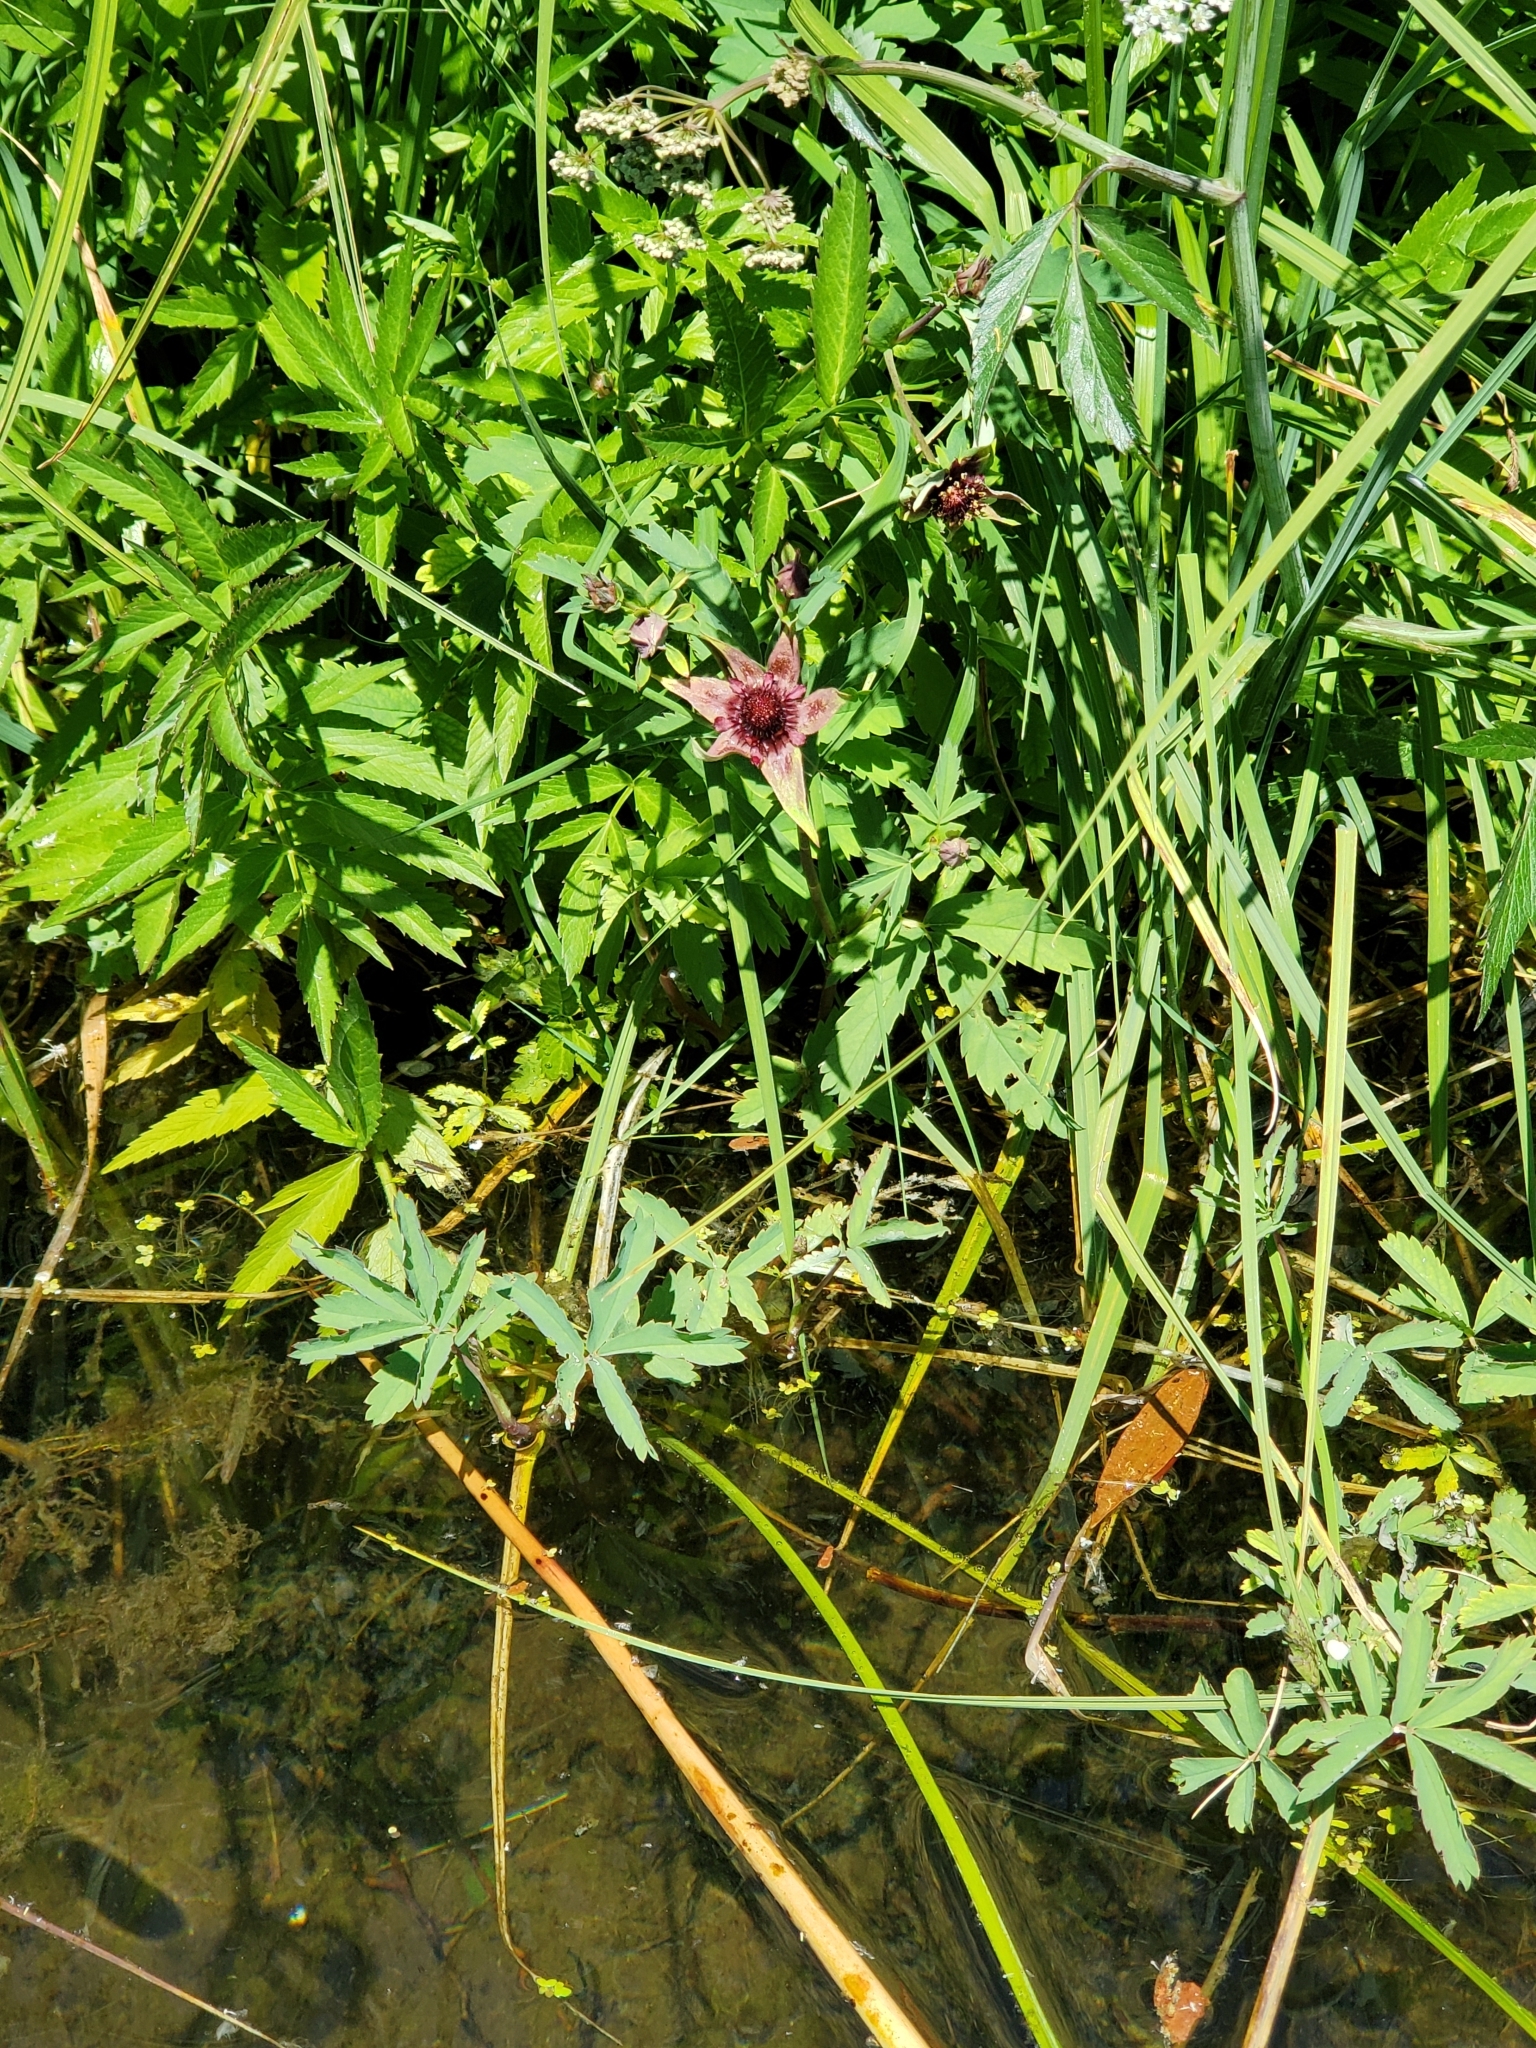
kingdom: Plantae
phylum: Tracheophyta
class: Magnoliopsida
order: Rosales
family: Rosaceae
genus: Comarum
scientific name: Comarum palustre
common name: Marsh cinquefoil
